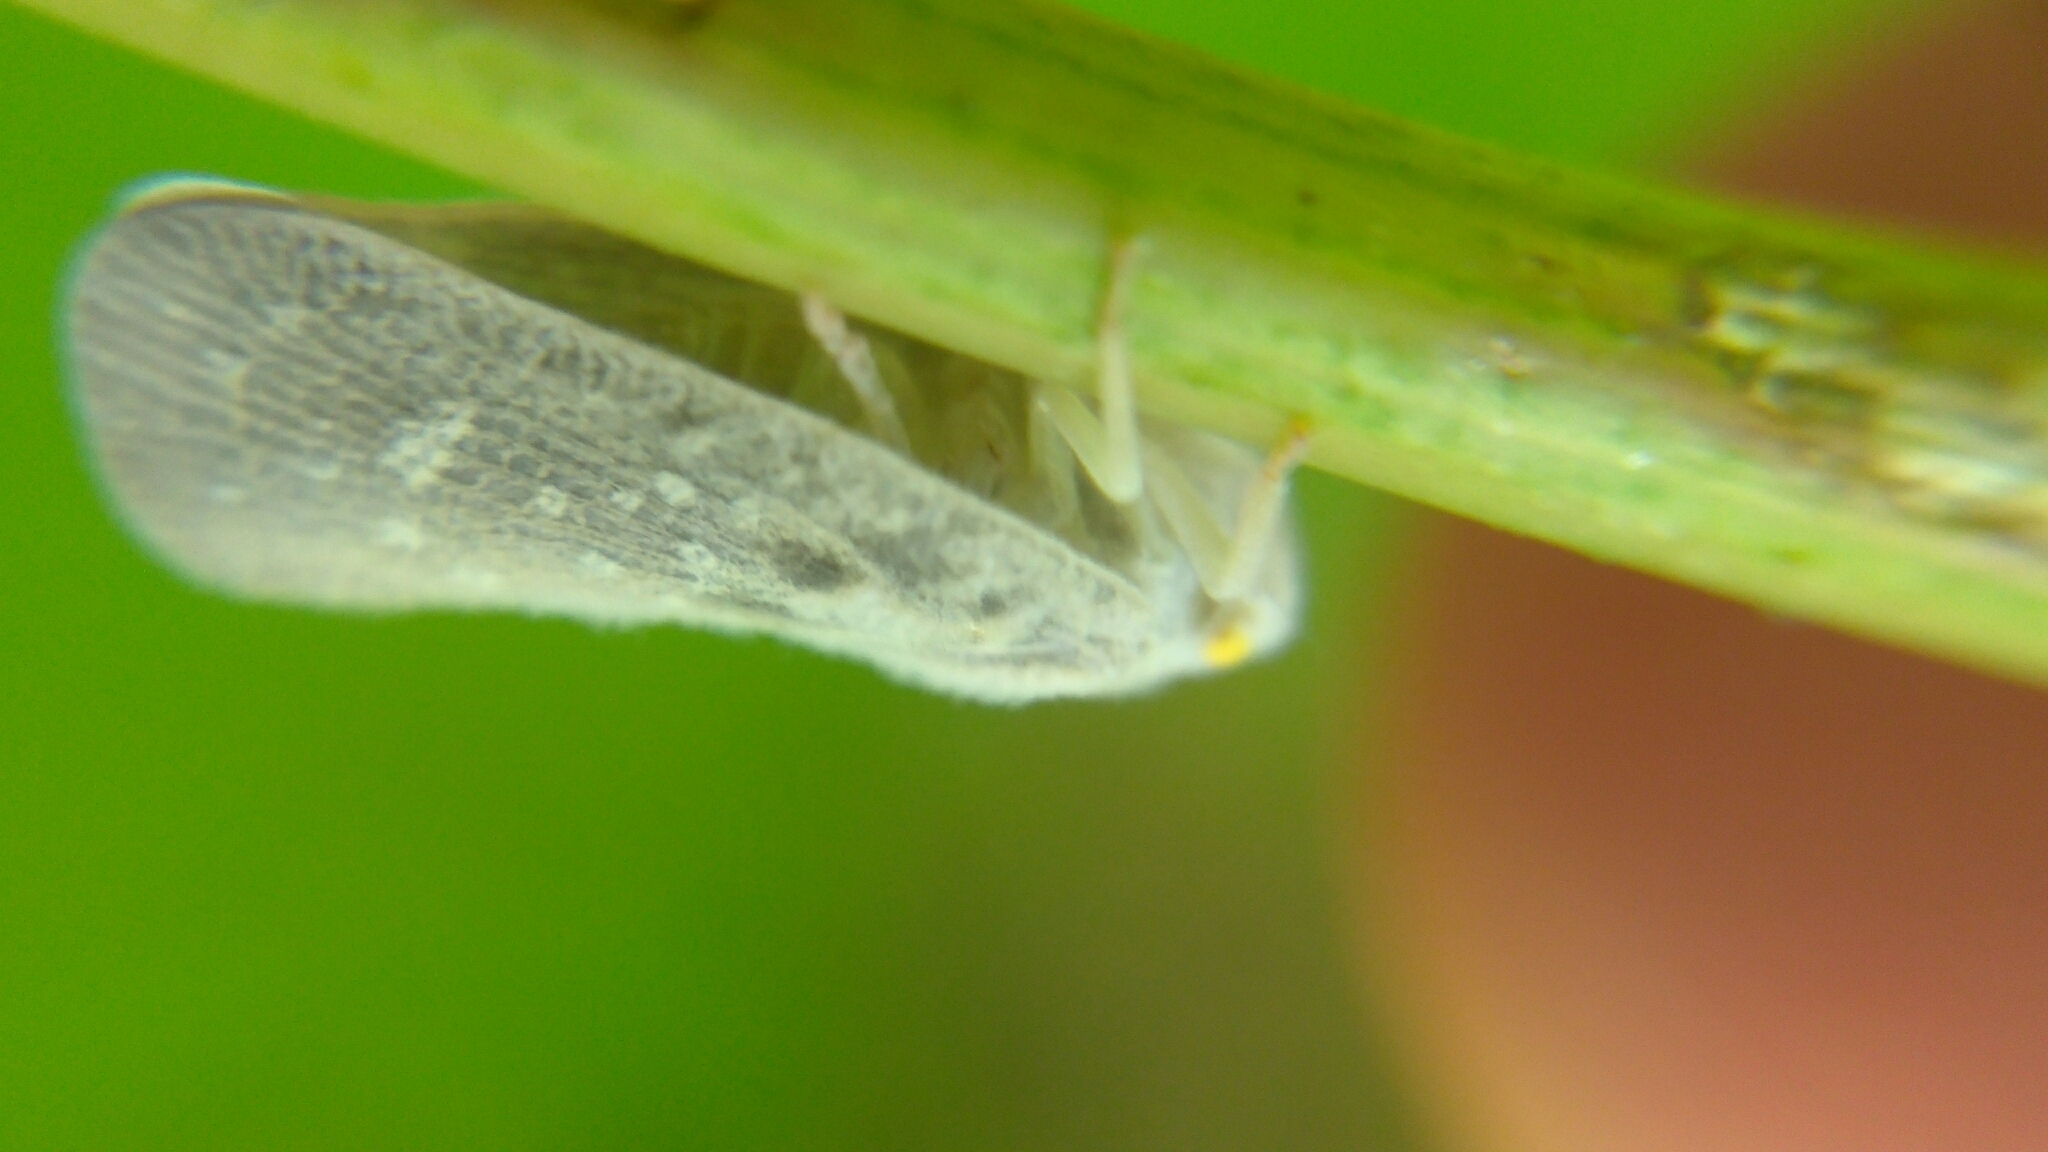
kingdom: Animalia
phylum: Arthropoda
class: Insecta
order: Hemiptera
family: Flatidae
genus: Metcalfa
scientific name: Metcalfa pruinosa
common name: Citrus flatid planthopper
